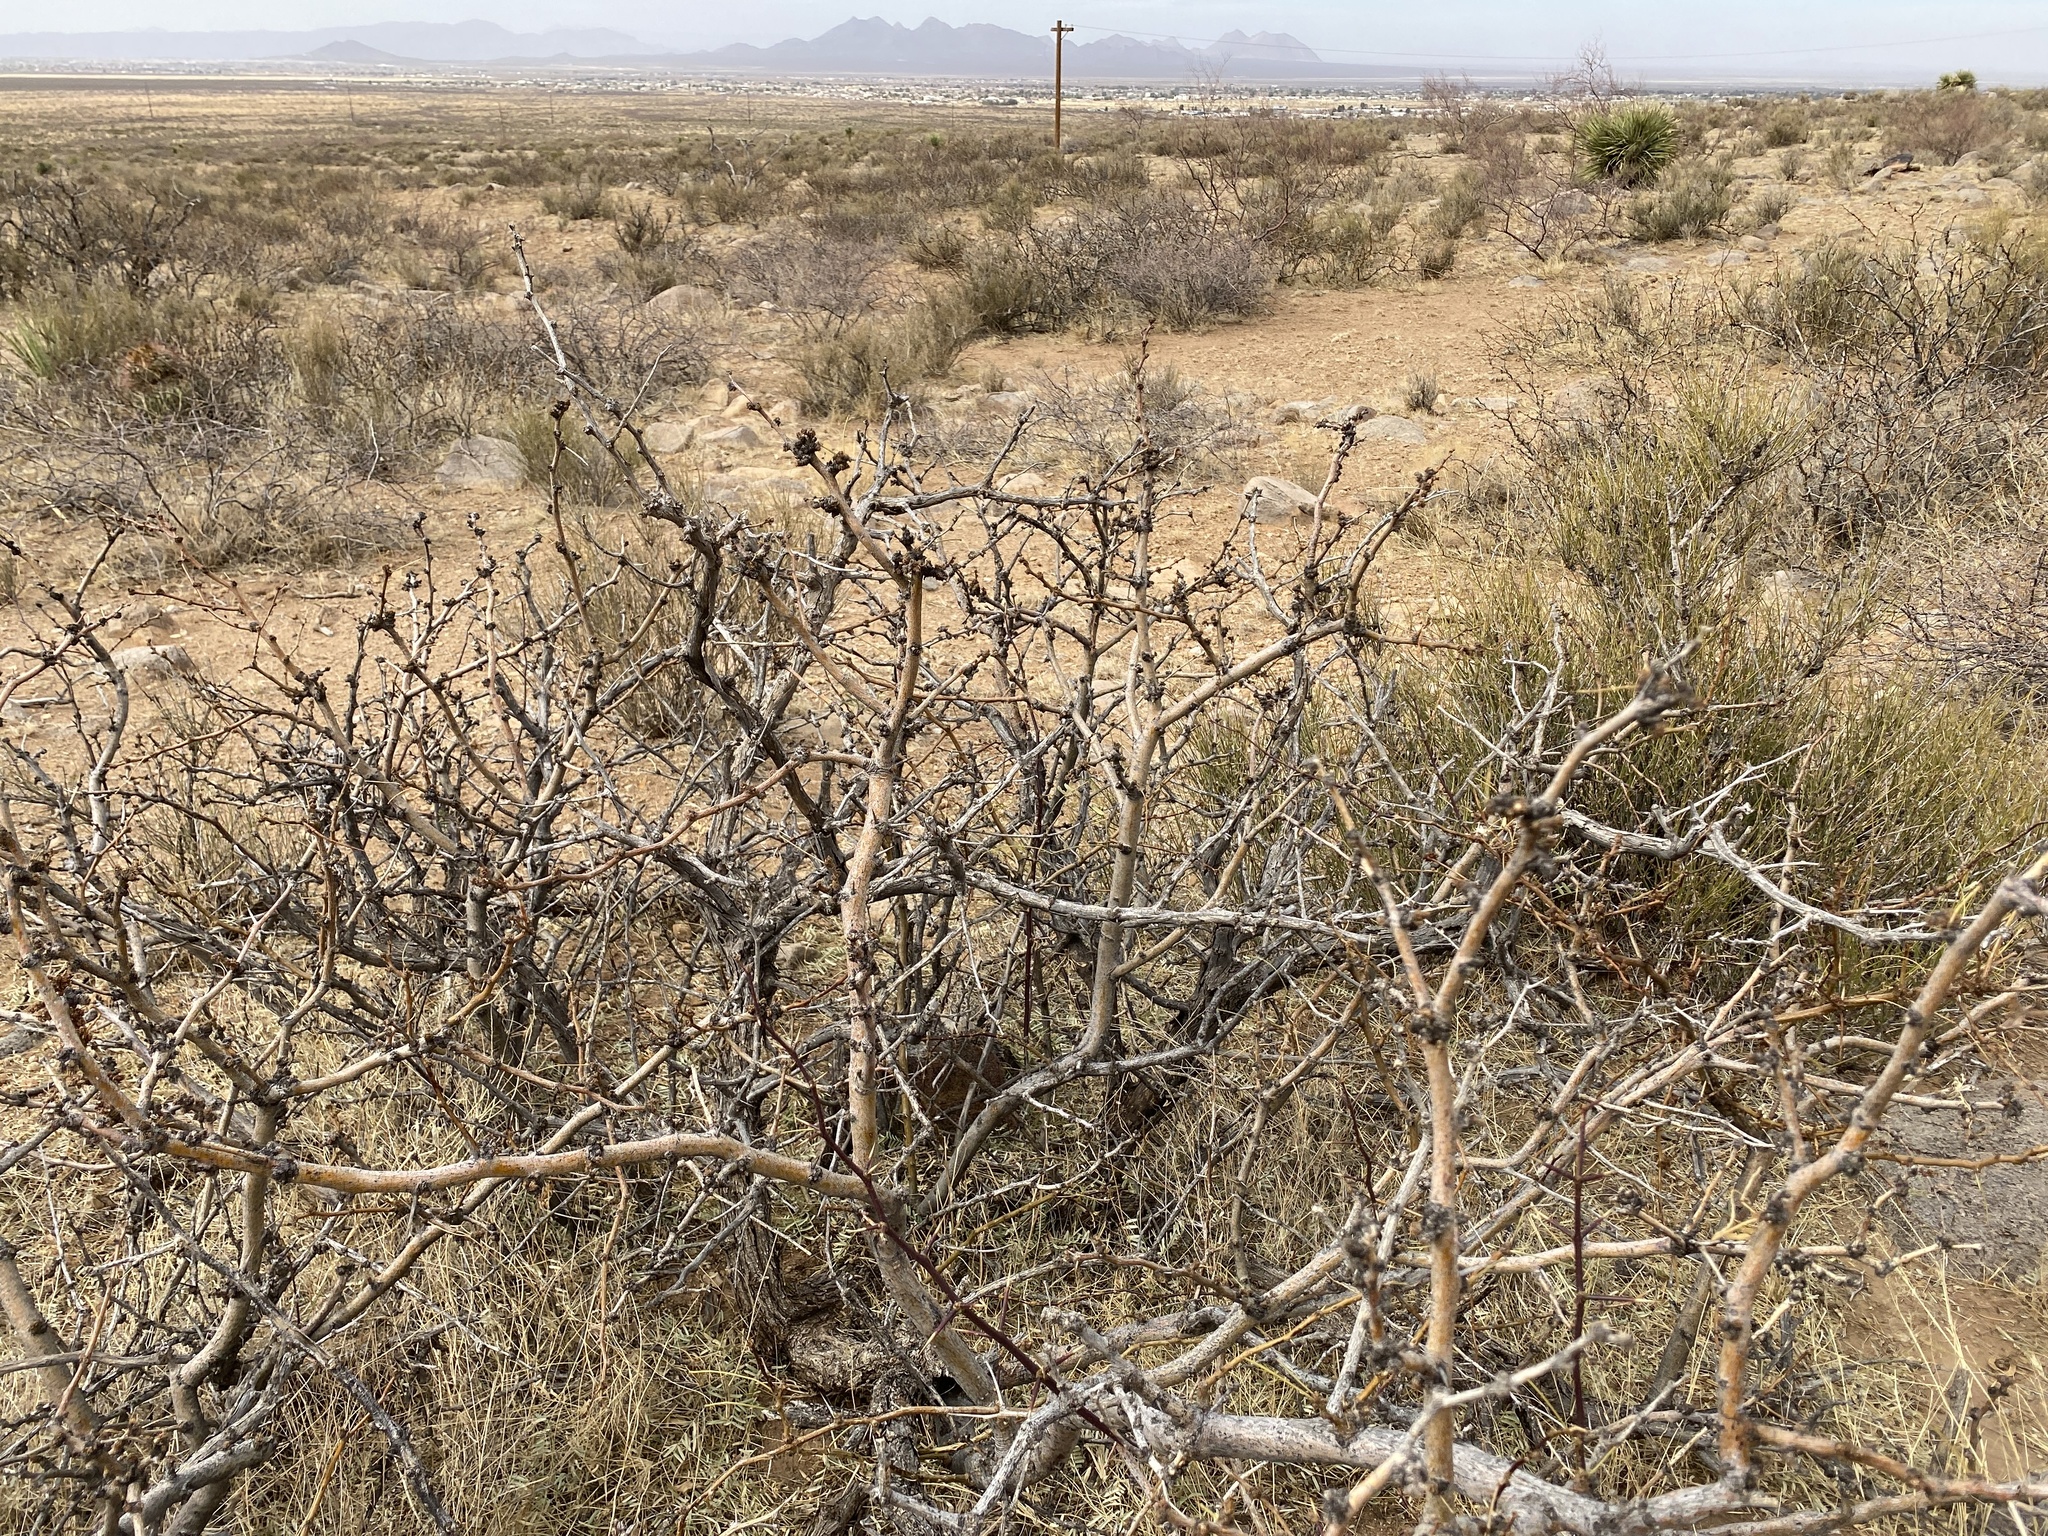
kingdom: Plantae
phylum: Tracheophyta
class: Magnoliopsida
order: Fabales
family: Fabaceae
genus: Prosopis
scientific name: Prosopis glandulosa
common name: Honey mesquite
